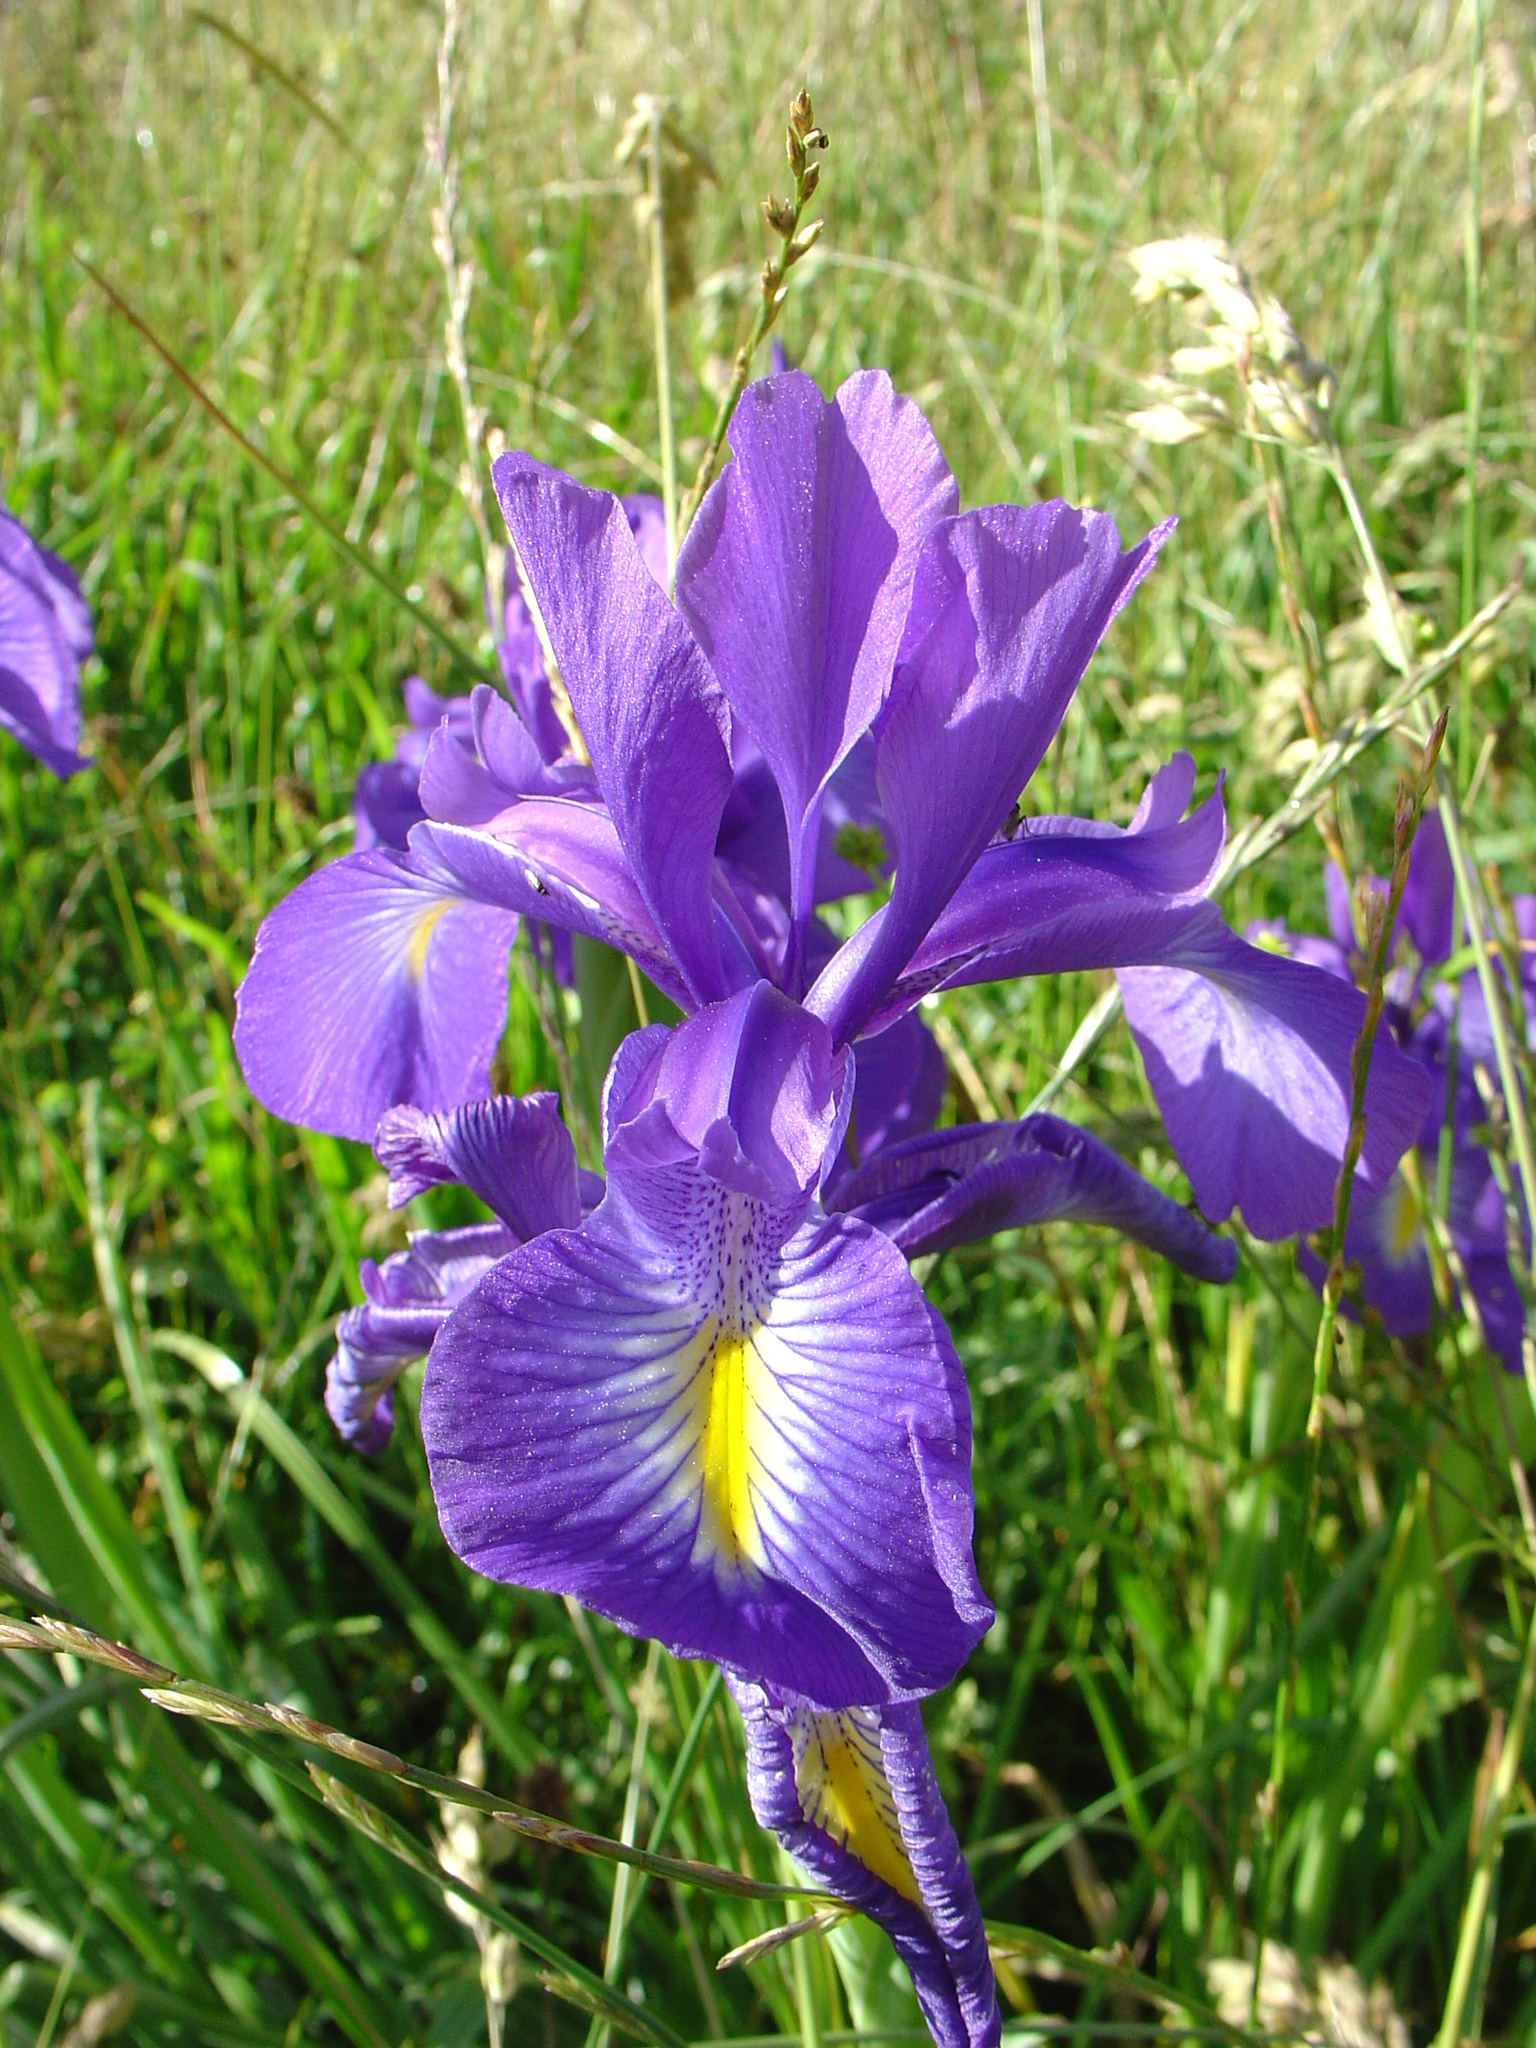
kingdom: Plantae
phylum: Tracheophyta
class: Liliopsida
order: Asparagales
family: Iridaceae
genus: Iris
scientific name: Iris
